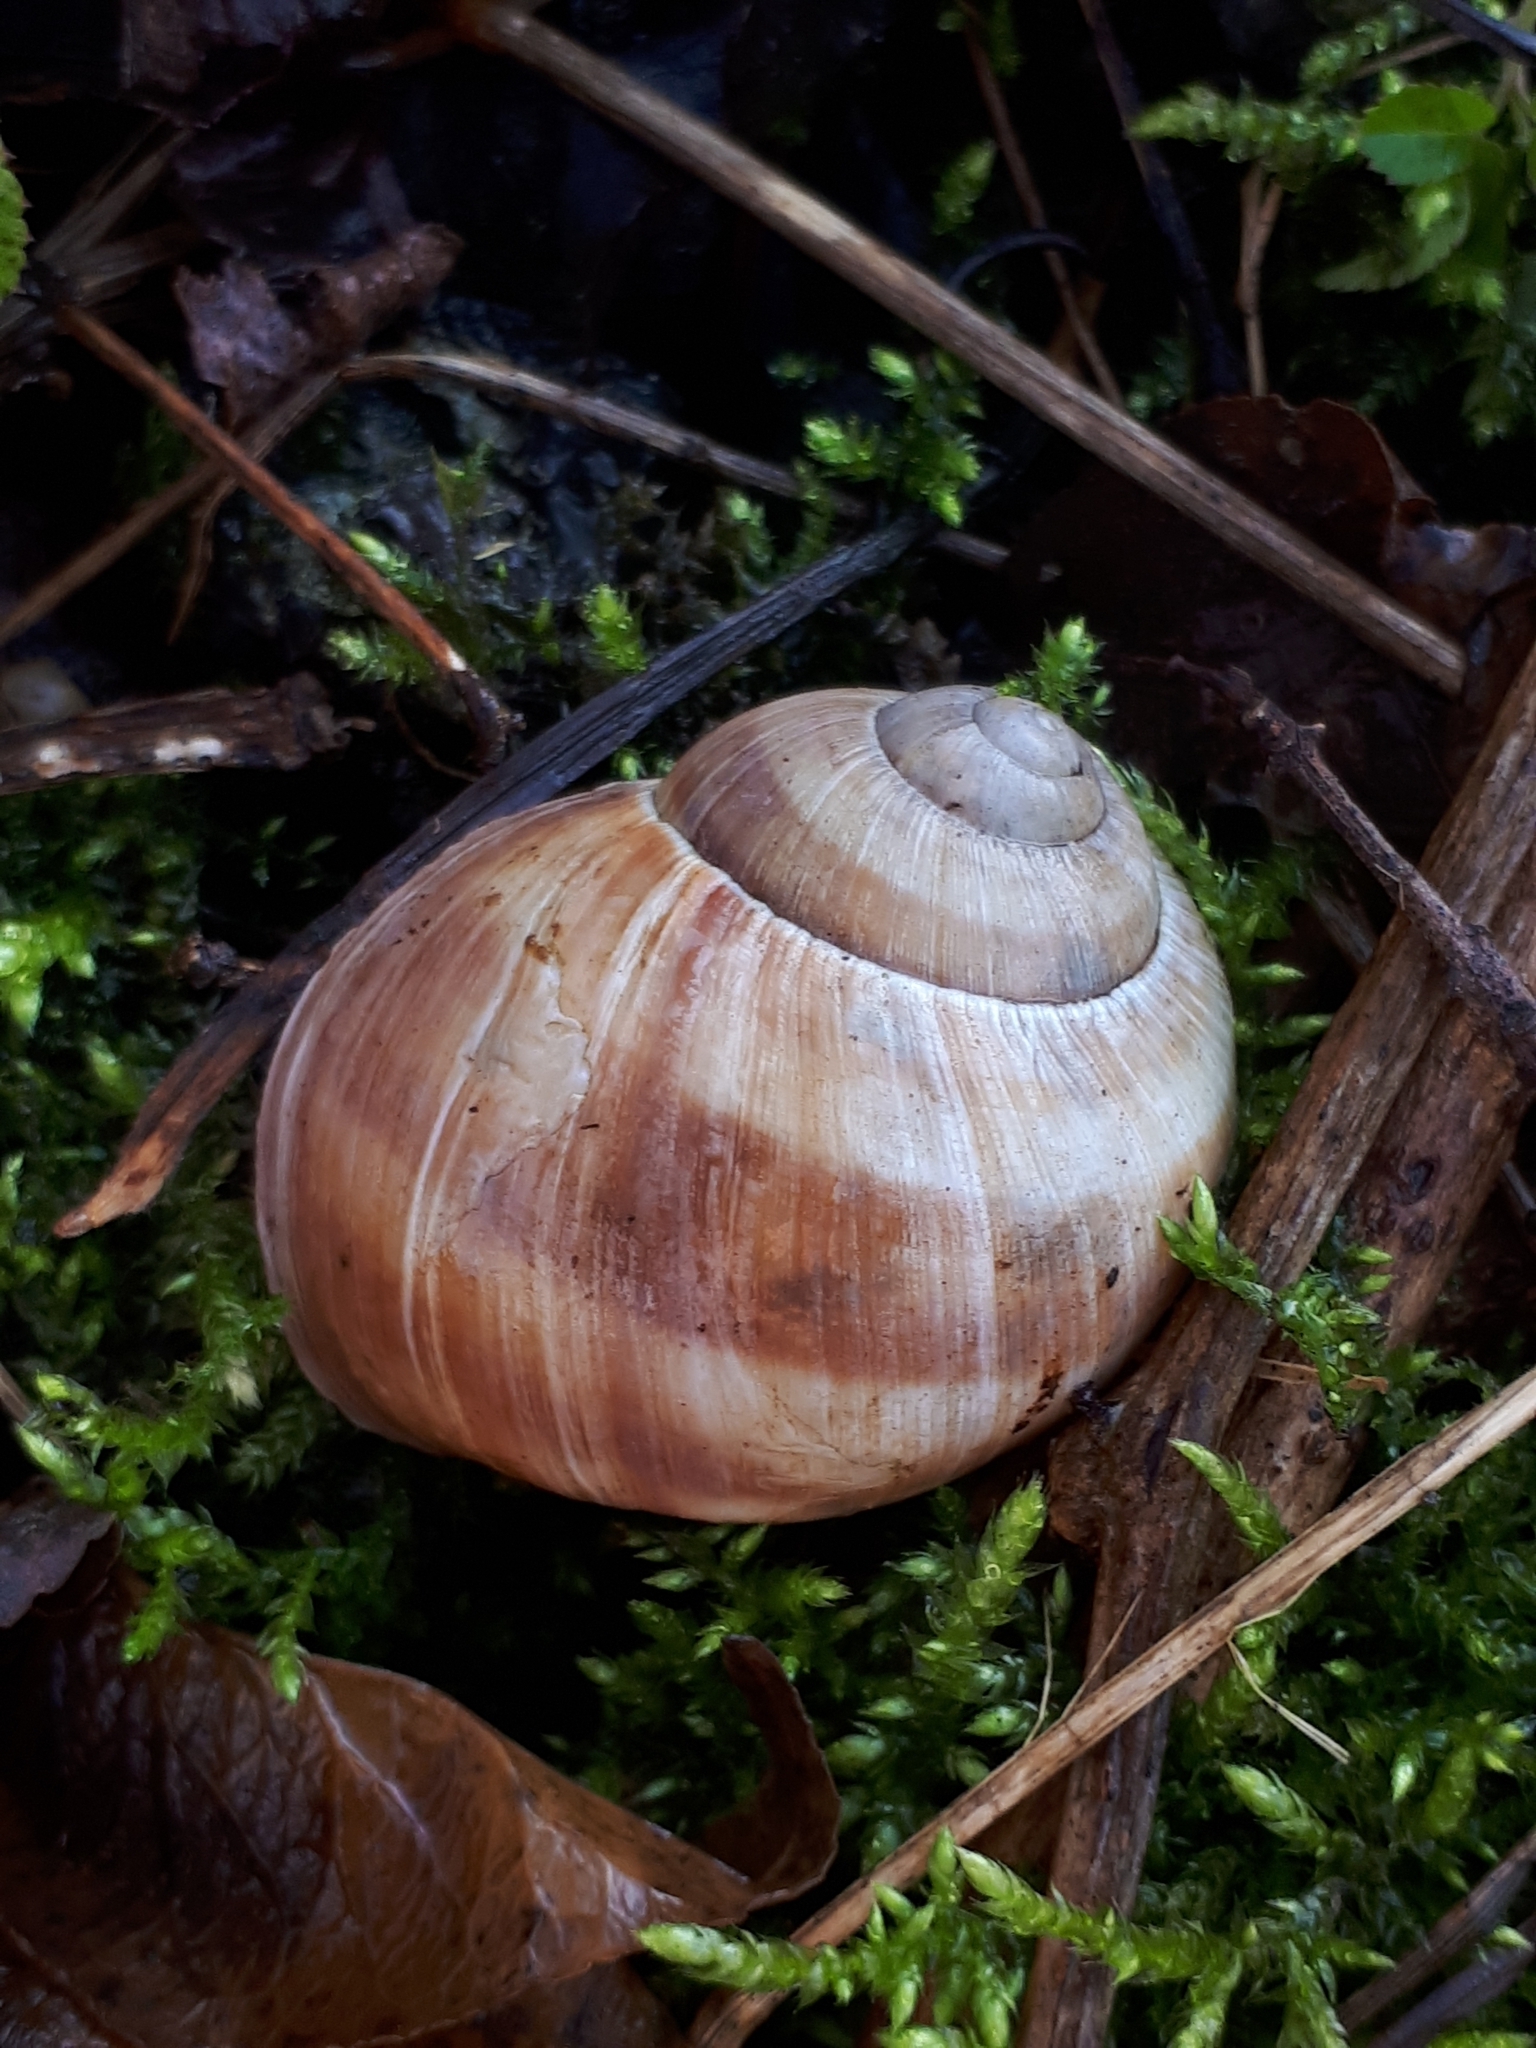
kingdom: Animalia
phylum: Mollusca
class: Gastropoda
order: Stylommatophora
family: Helicidae
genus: Helix
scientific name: Helix pomatia
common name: Roman snail
